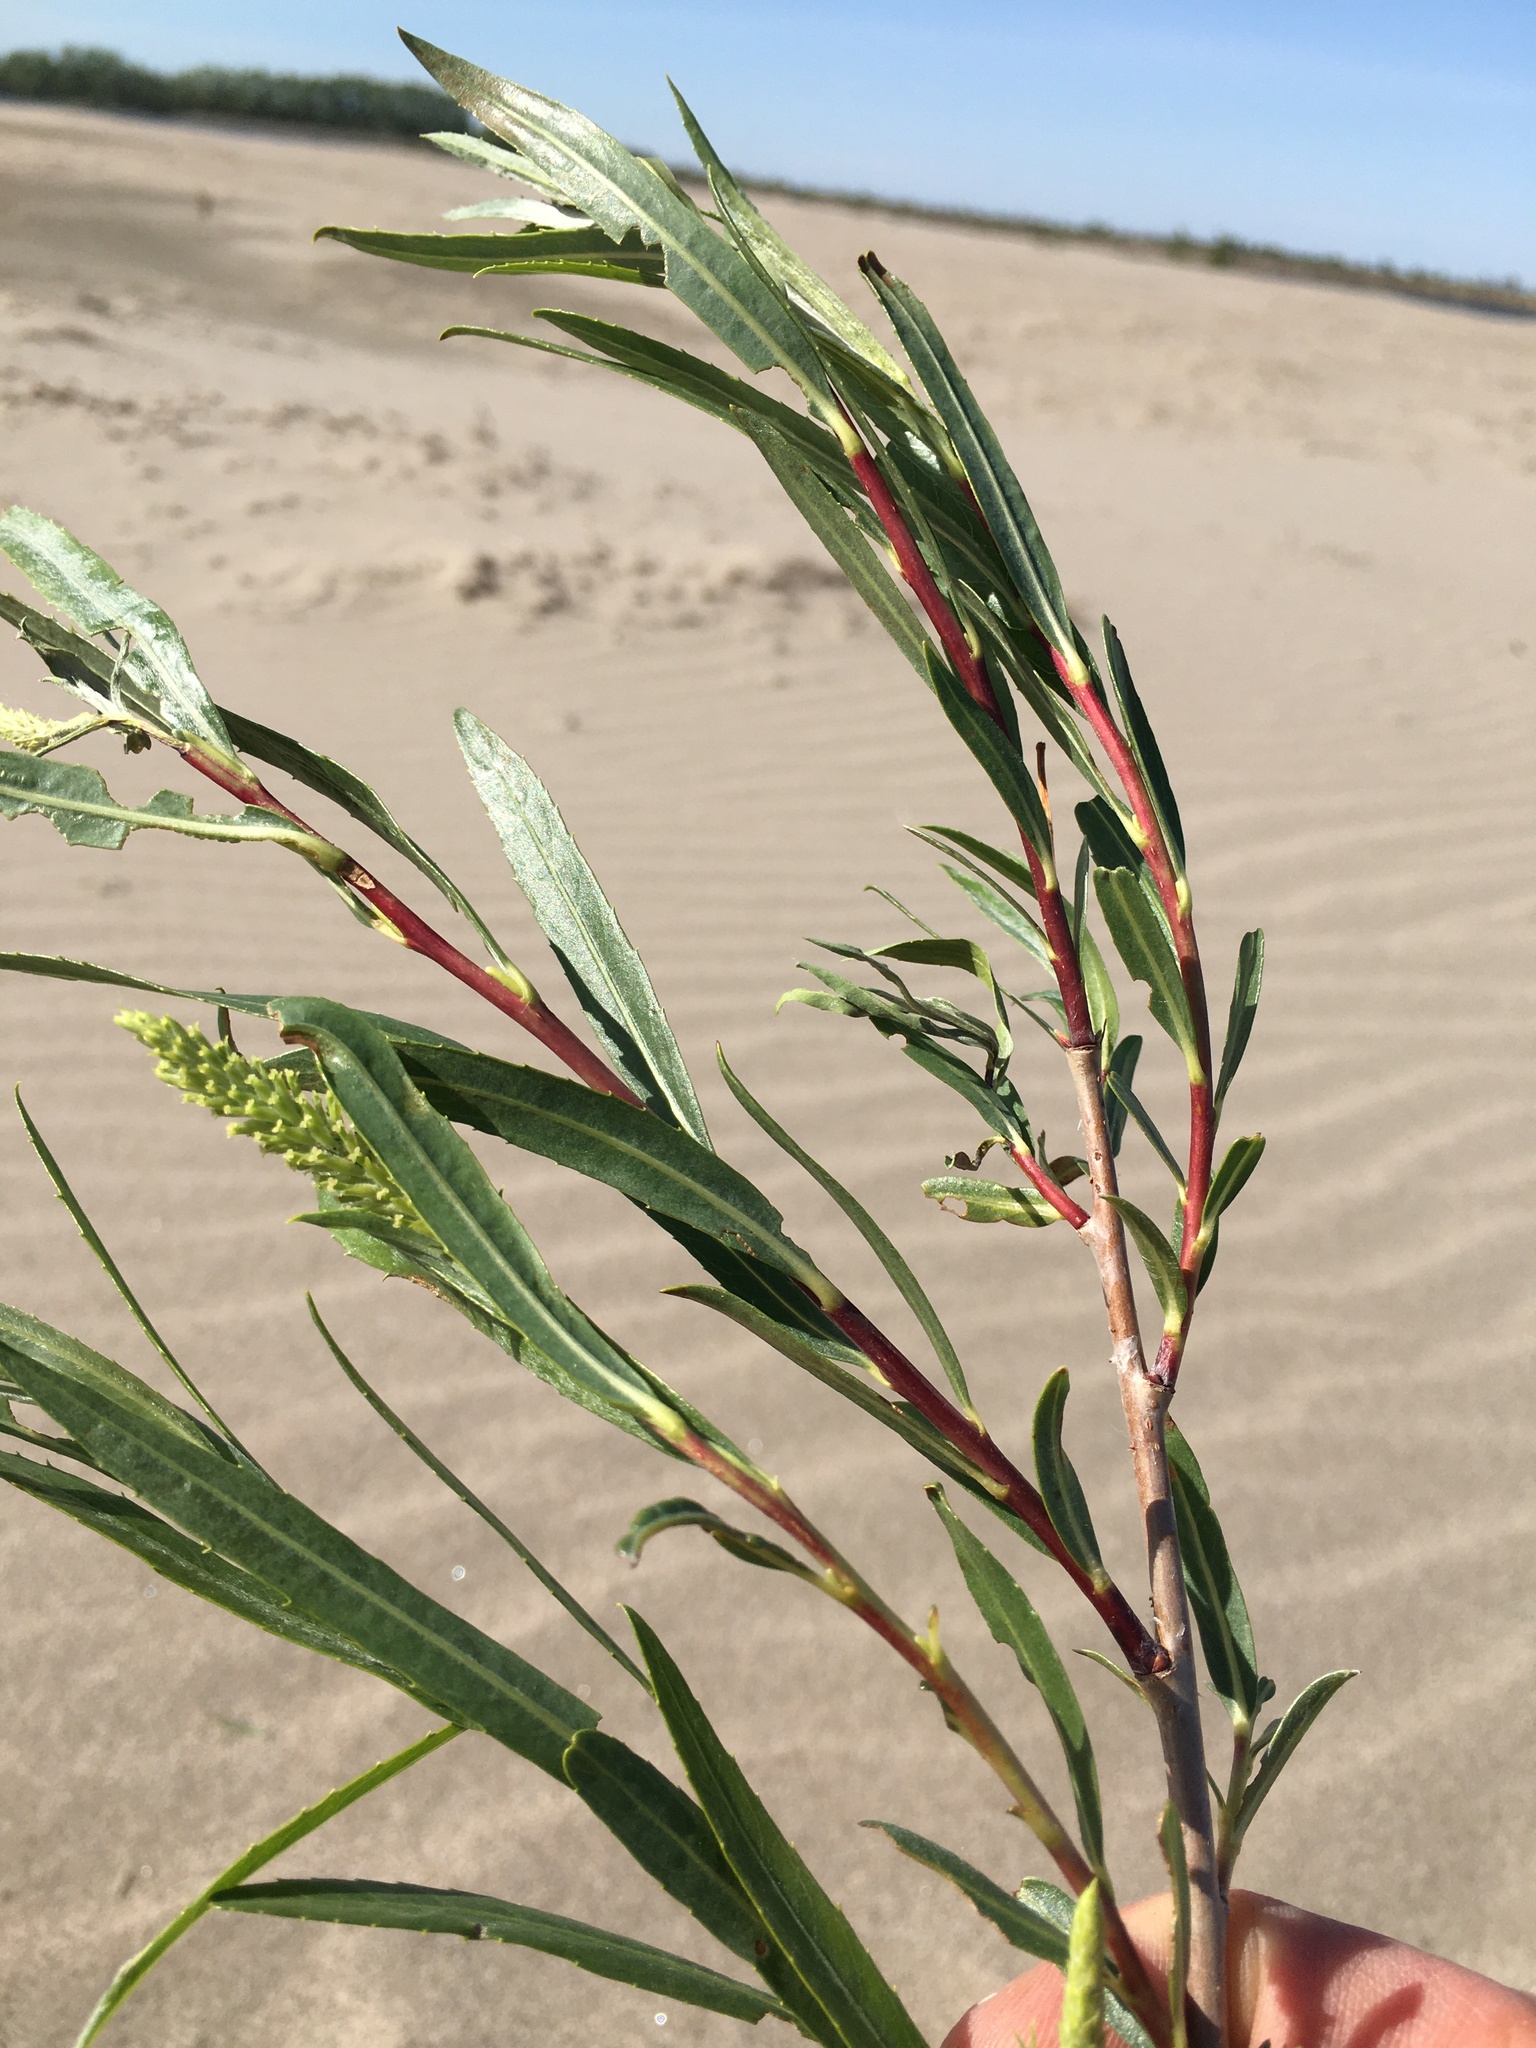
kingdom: Plantae
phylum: Tracheophyta
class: Magnoliopsida
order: Malpighiales
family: Salicaceae
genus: Salix
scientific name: Salix interior
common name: Sandbar willow
